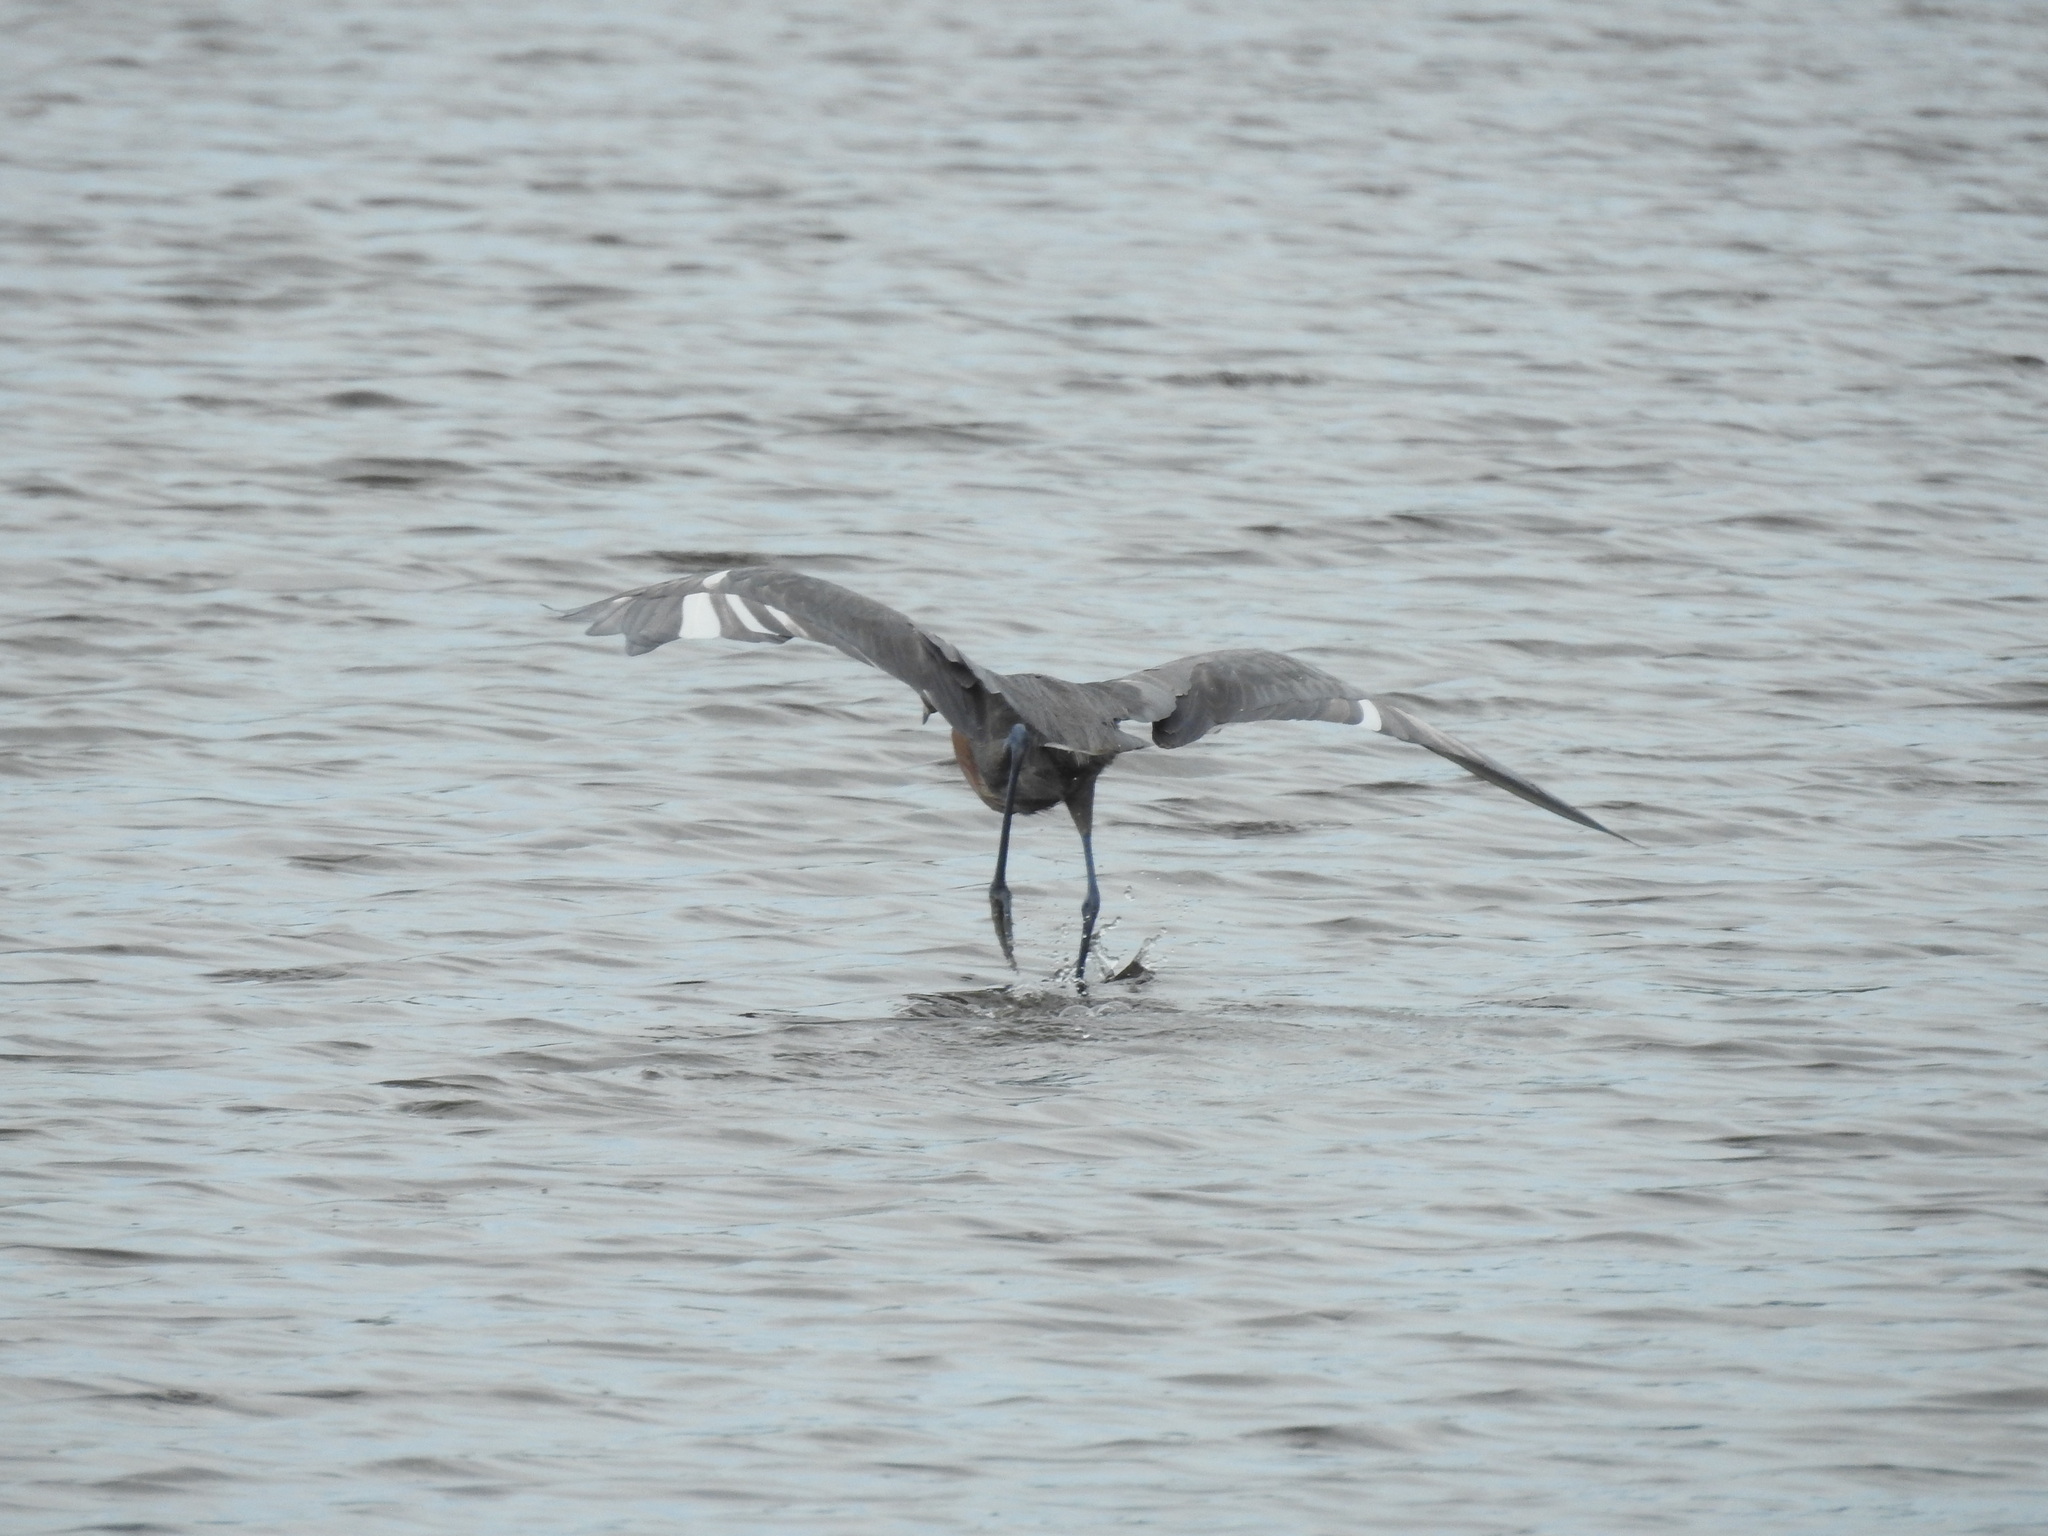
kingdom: Animalia
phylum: Chordata
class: Aves
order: Pelecaniformes
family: Ardeidae
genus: Egretta
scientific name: Egretta rufescens
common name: Reddish egret
